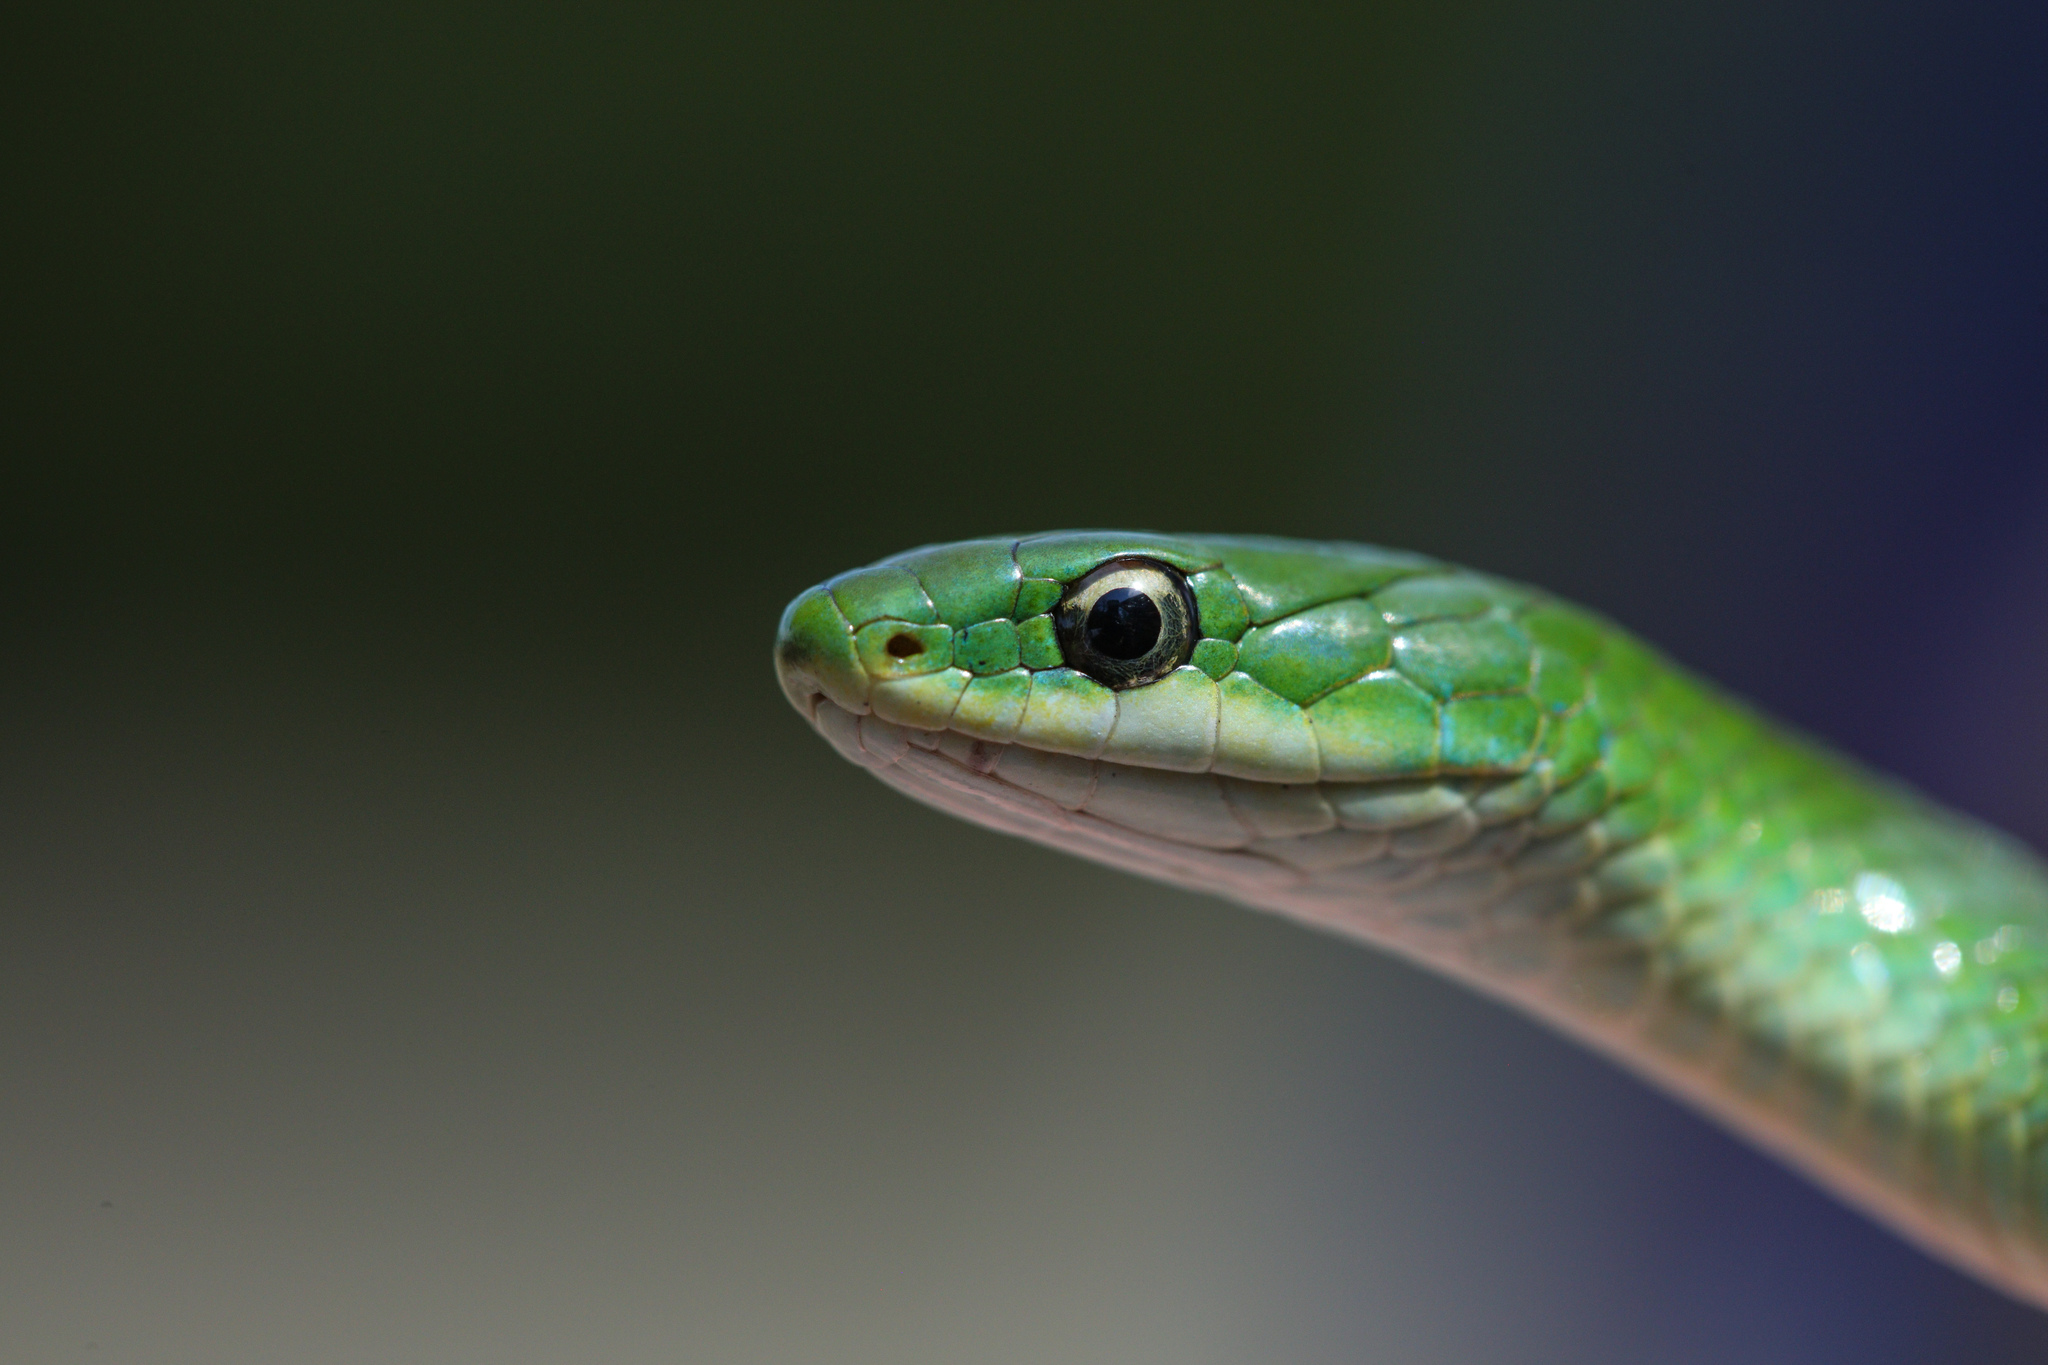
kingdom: Animalia
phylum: Chordata
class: Squamata
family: Colubridae
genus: Opheodrys
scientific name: Opheodrys vernalis
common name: Smooth green snake
